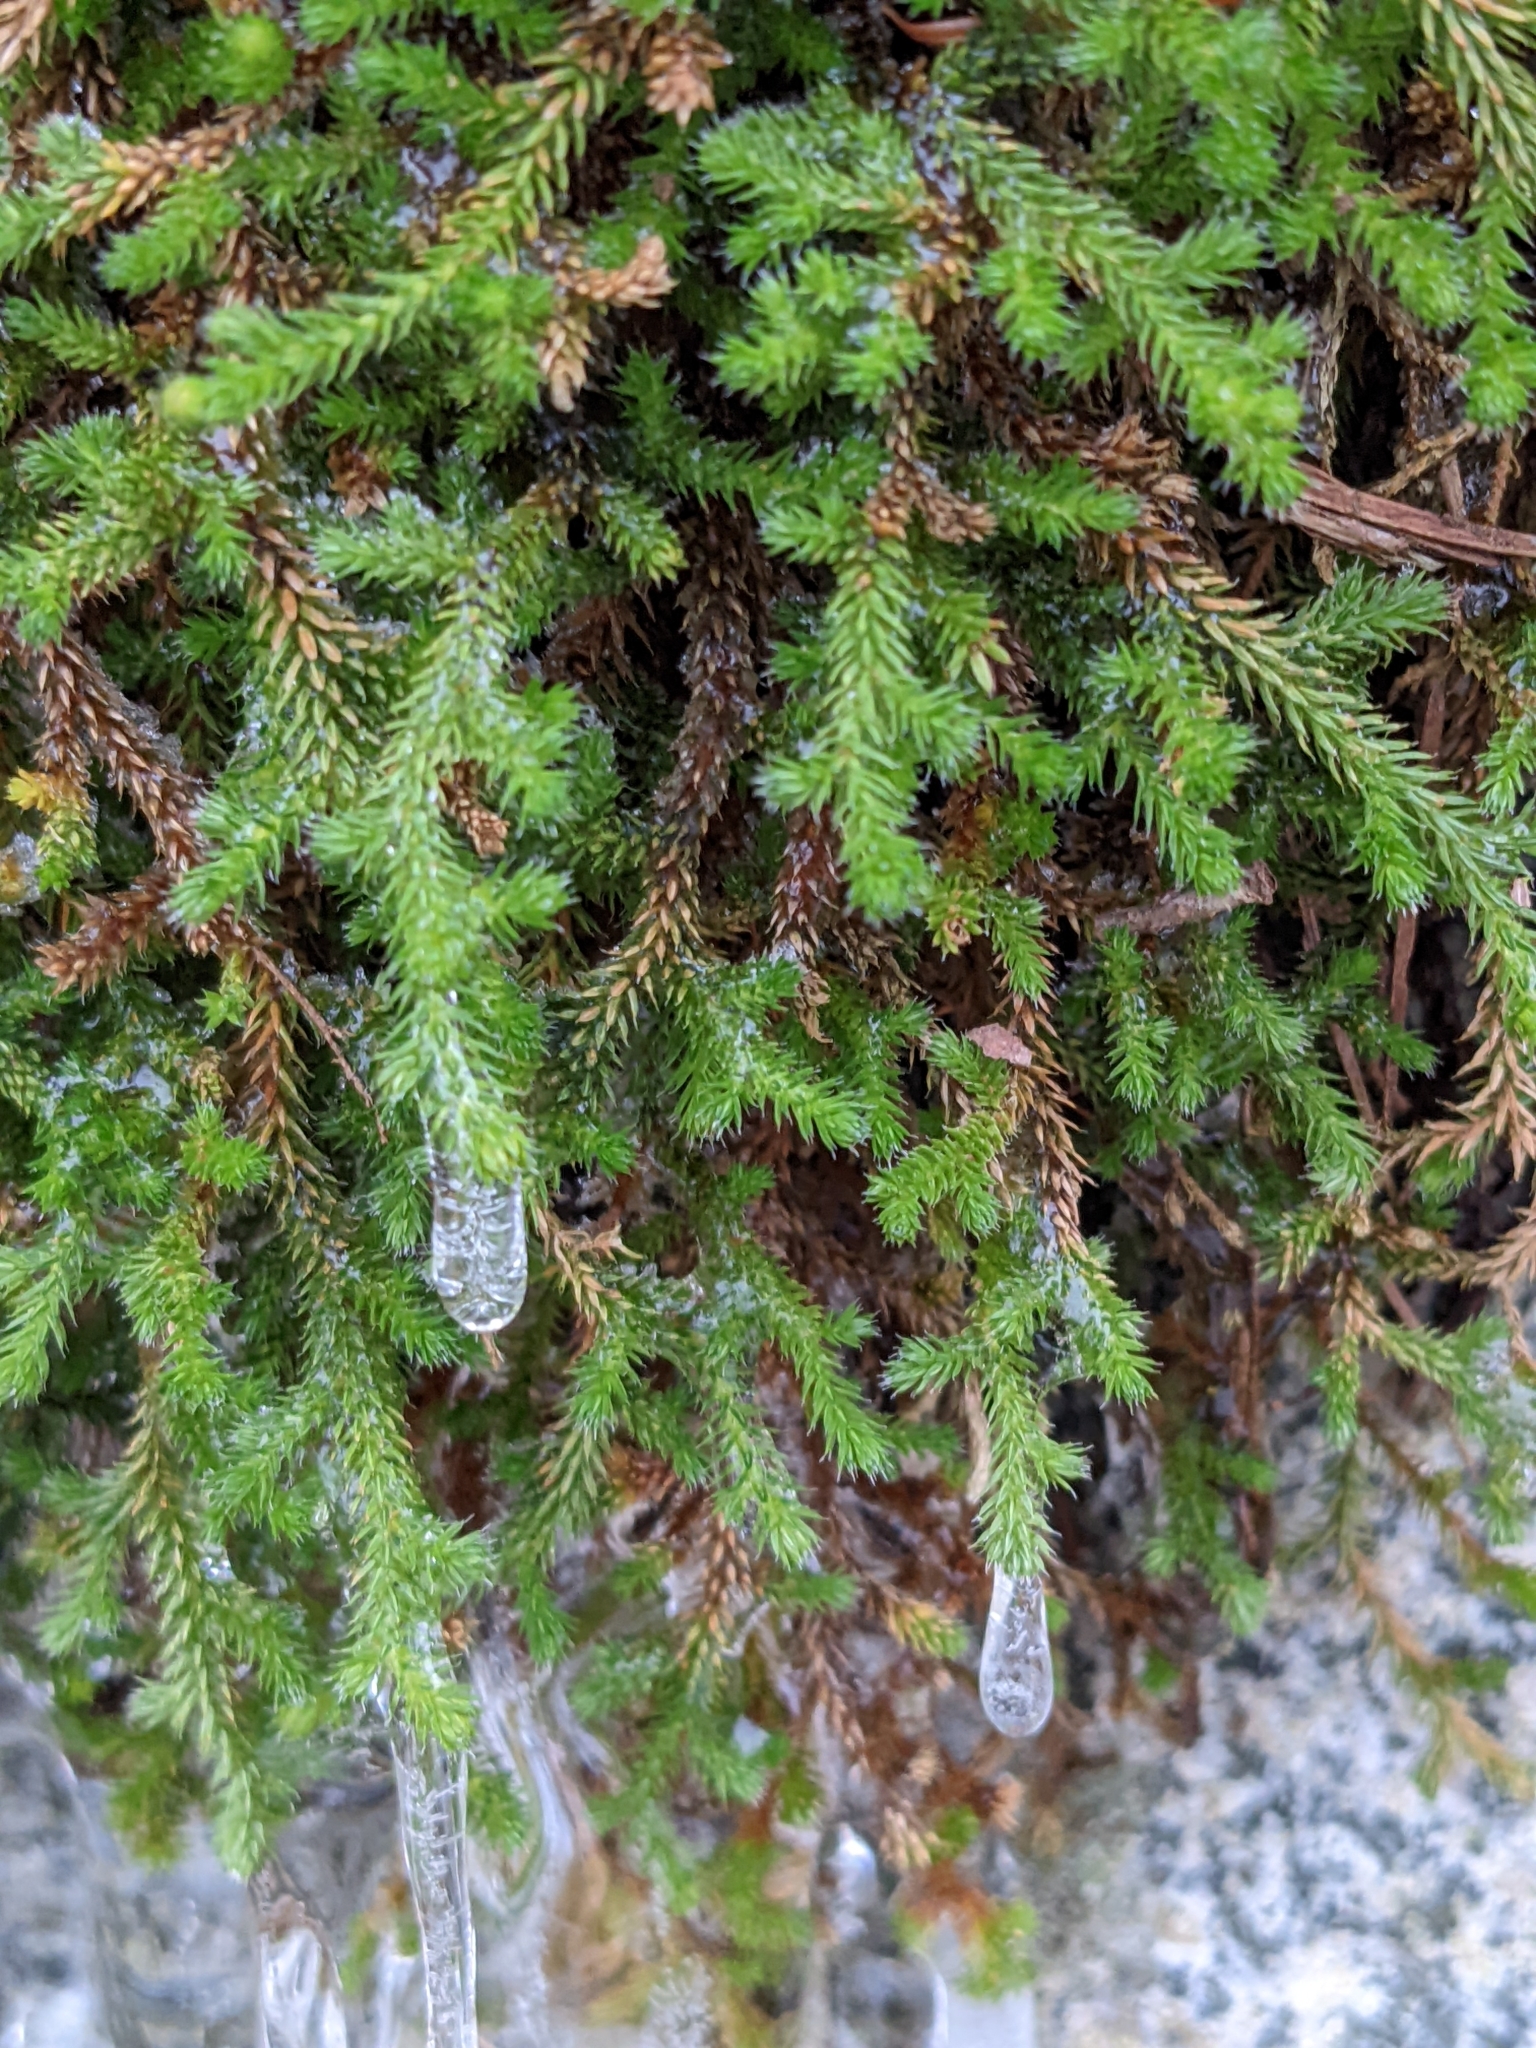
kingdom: Plantae
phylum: Tracheophyta
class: Lycopodiopsida
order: Selaginellales
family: Selaginellaceae
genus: Selaginella
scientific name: Selaginella wallacei
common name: Wallace's selaginella
